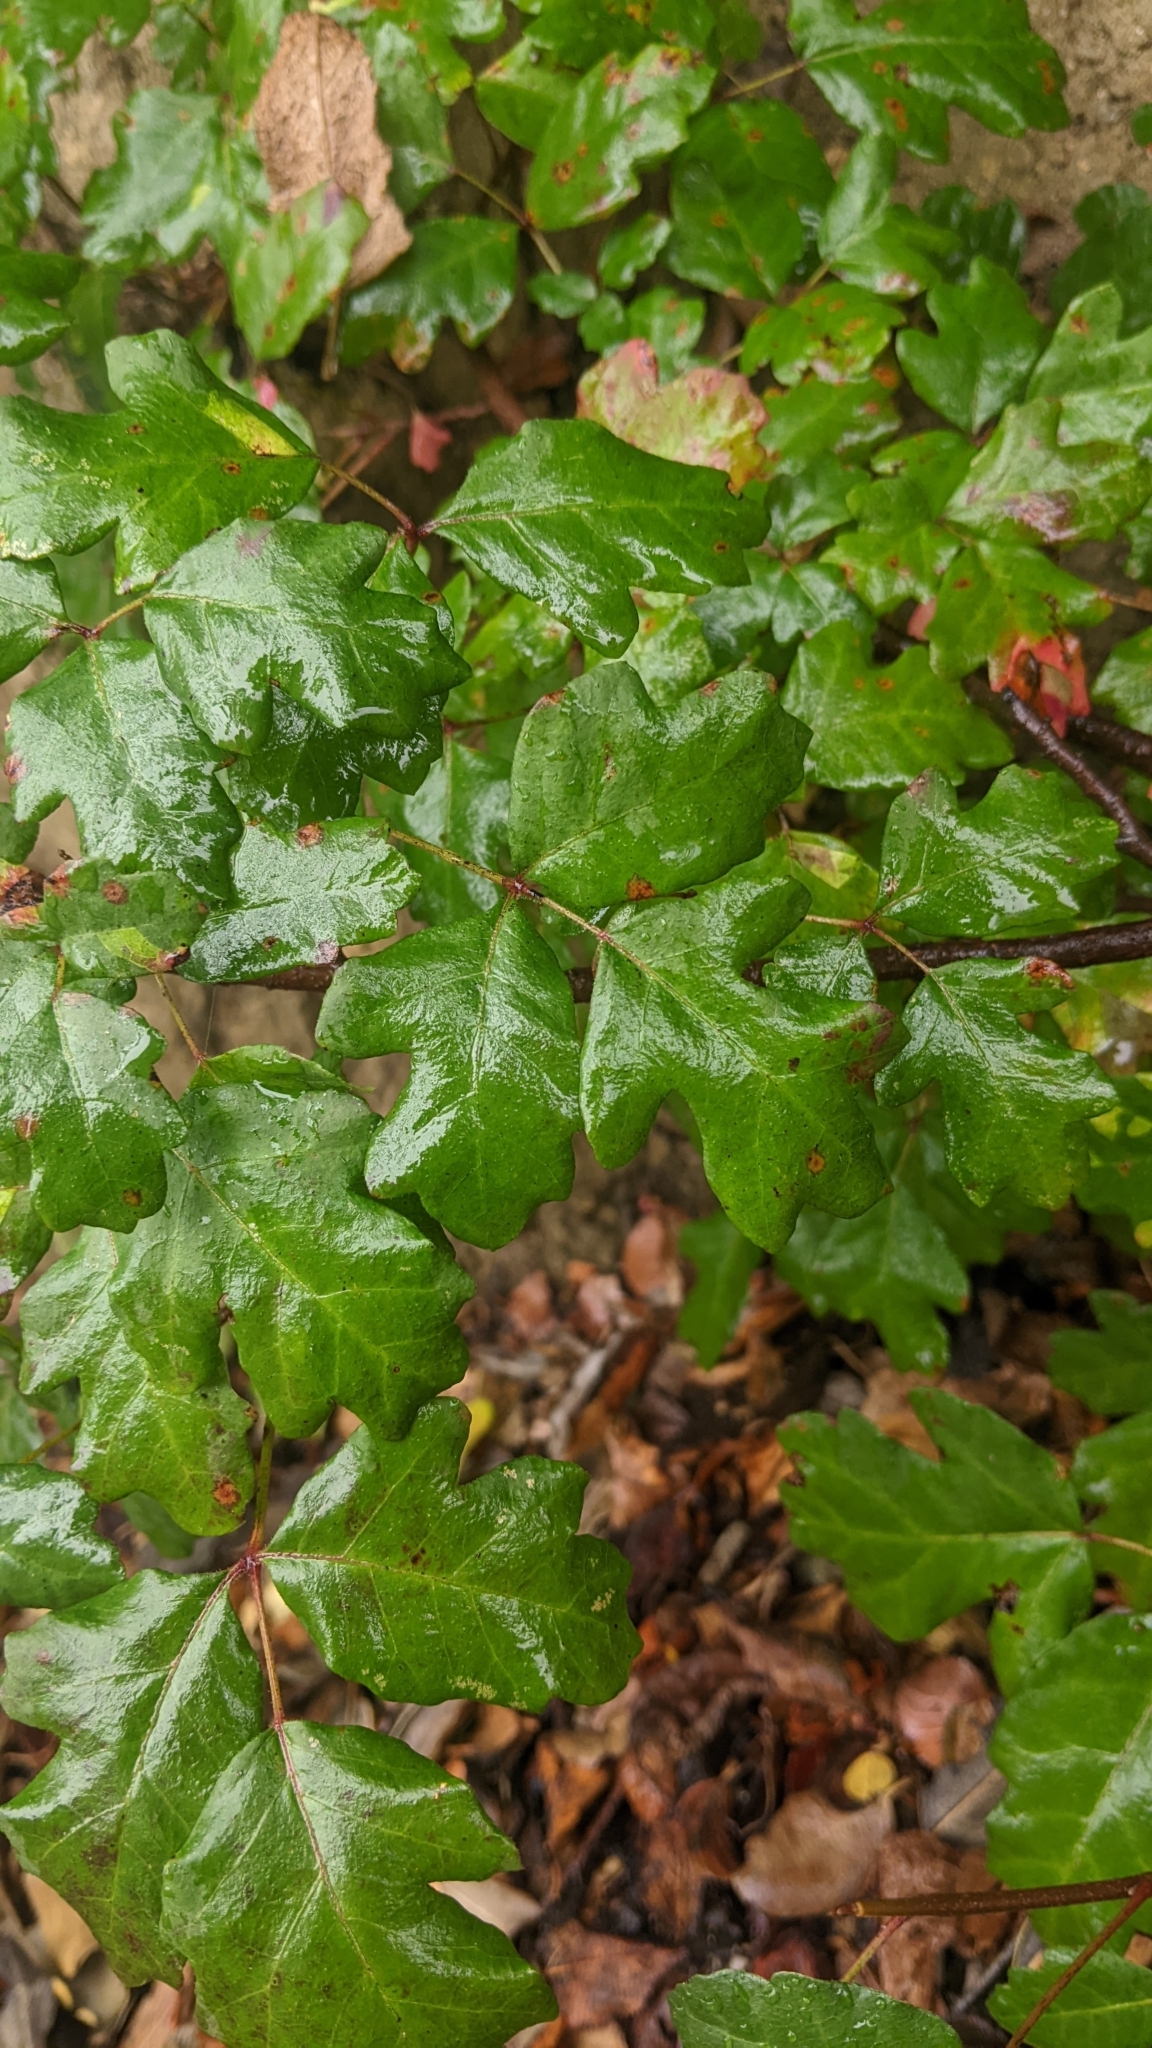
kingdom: Plantae
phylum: Tracheophyta
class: Magnoliopsida
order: Sapindales
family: Anacardiaceae
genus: Toxicodendron
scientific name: Toxicodendron diversilobum
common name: Pacific poison-oak
